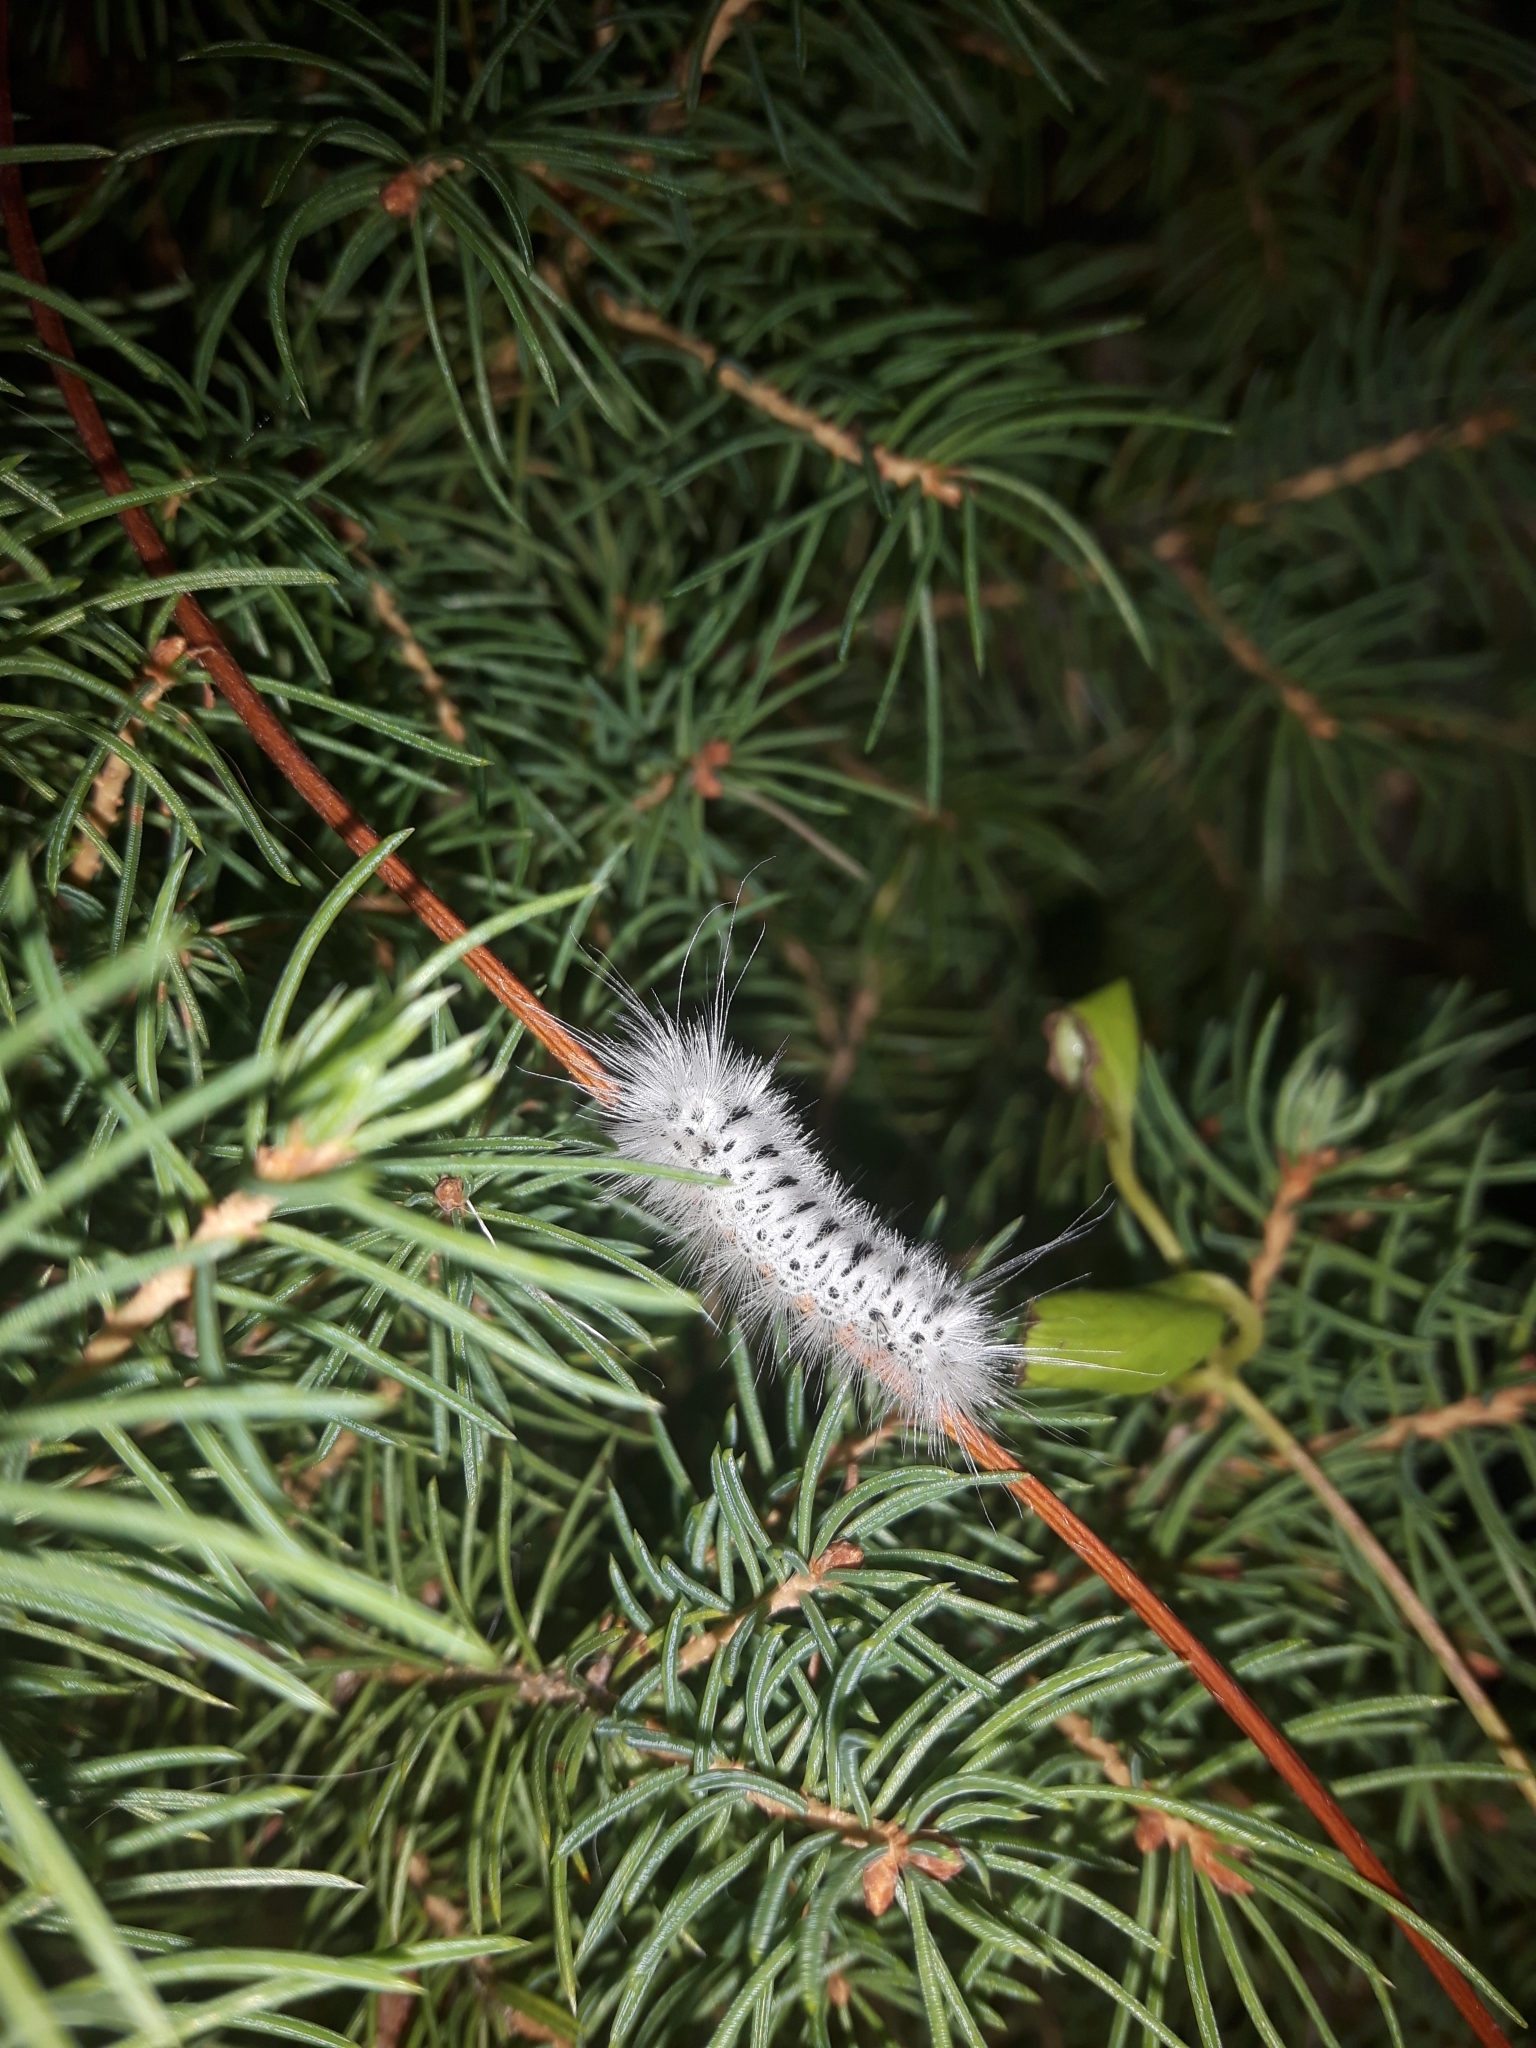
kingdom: Animalia
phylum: Arthropoda
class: Insecta
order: Lepidoptera
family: Erebidae
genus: Lophocampa
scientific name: Lophocampa caryae
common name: Hickory tussock moth
